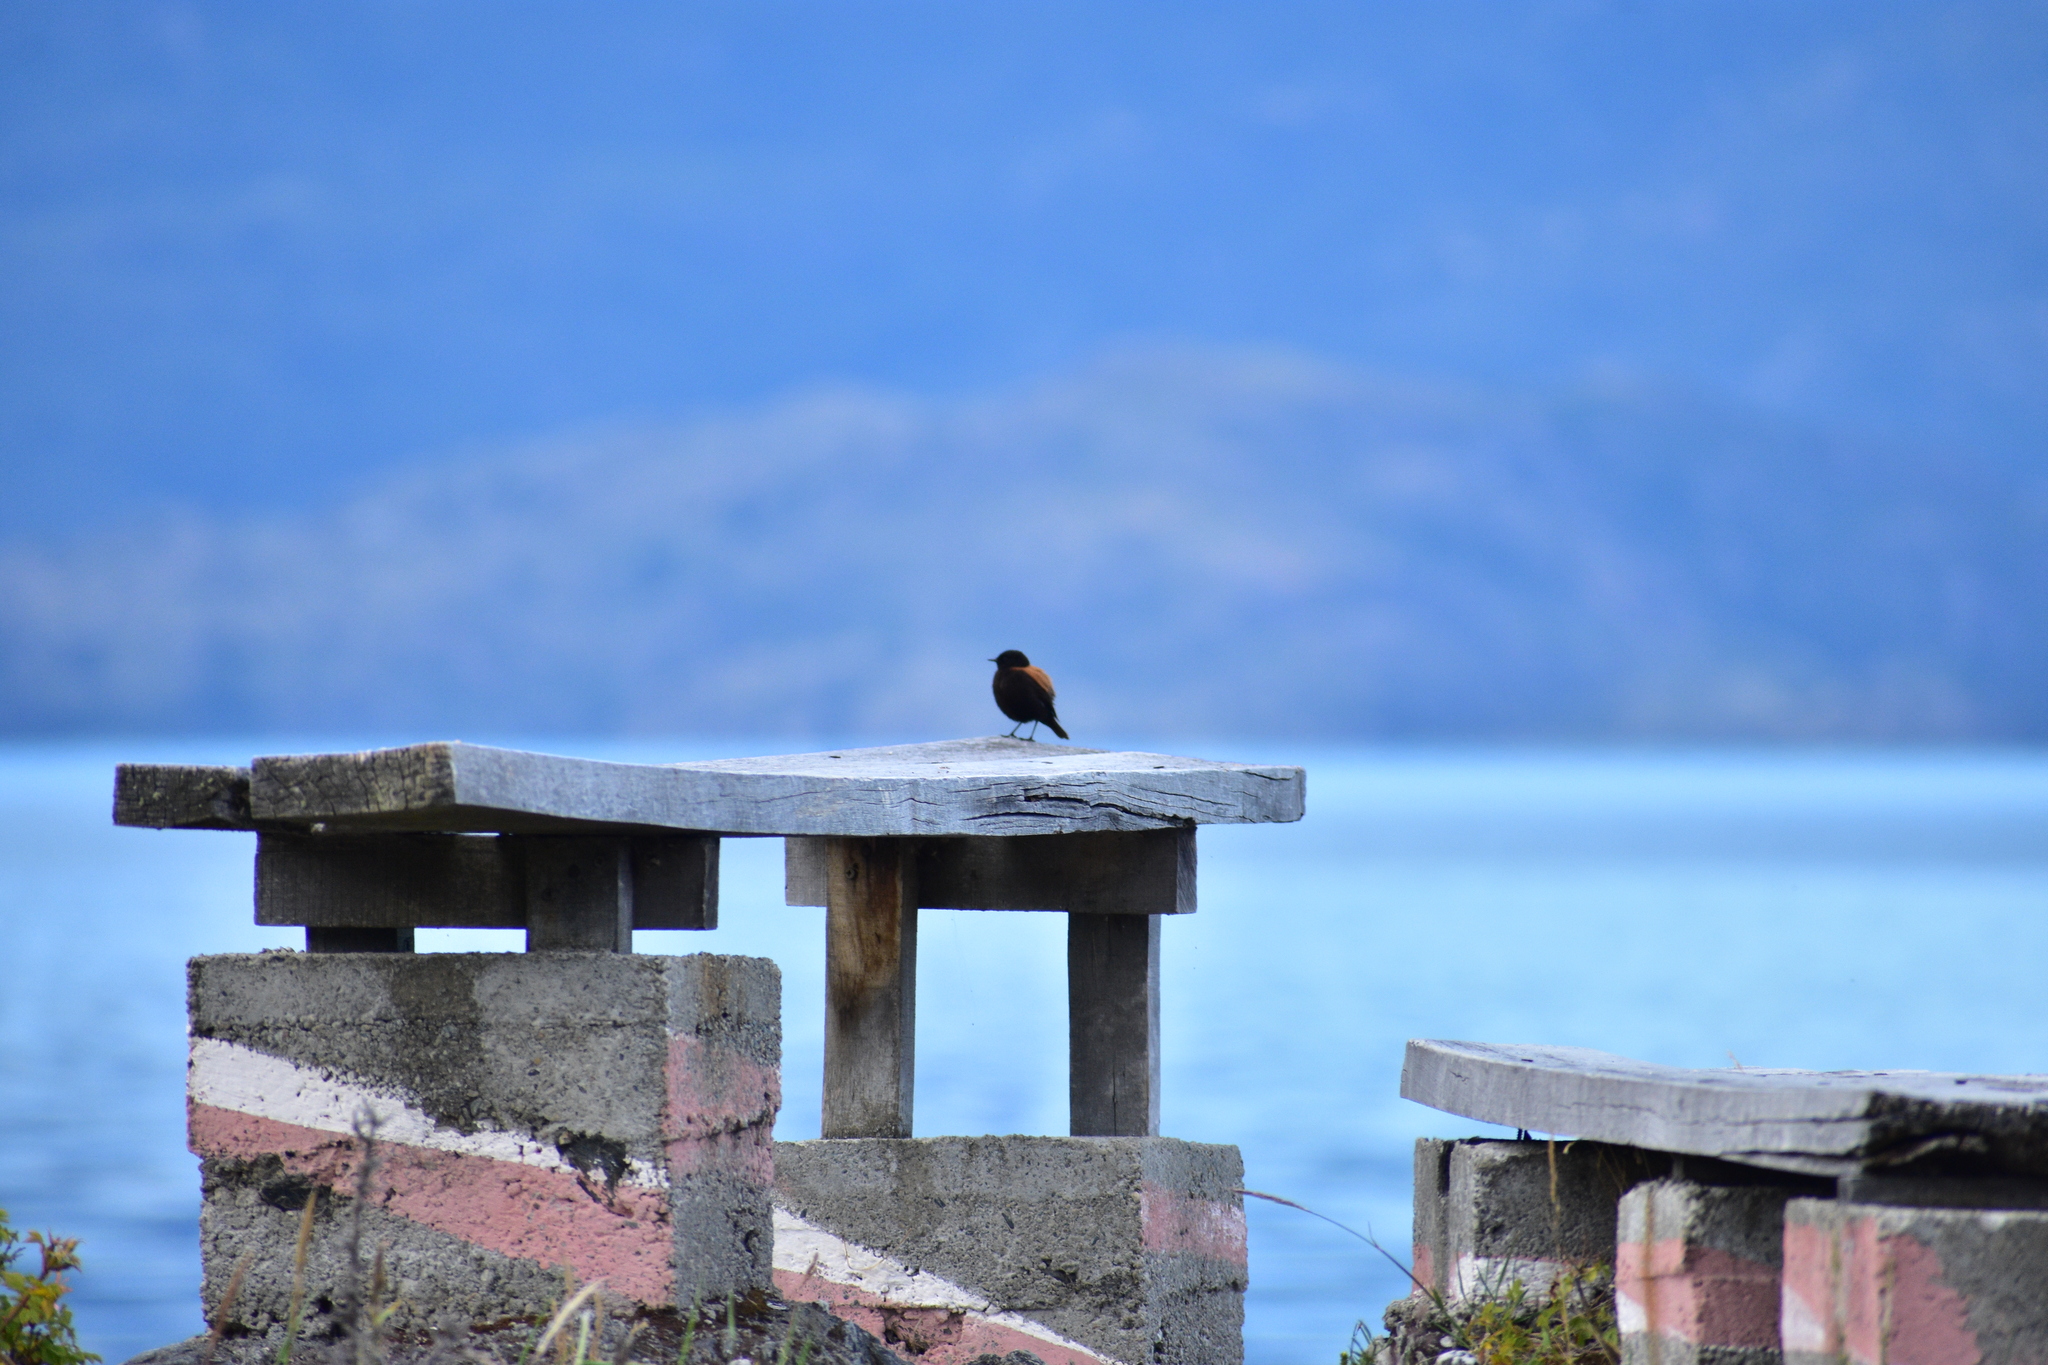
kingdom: Animalia
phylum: Chordata
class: Aves
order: Passeriformes
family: Tyrannidae
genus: Lessonia
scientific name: Lessonia rufa
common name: Austral negrito
